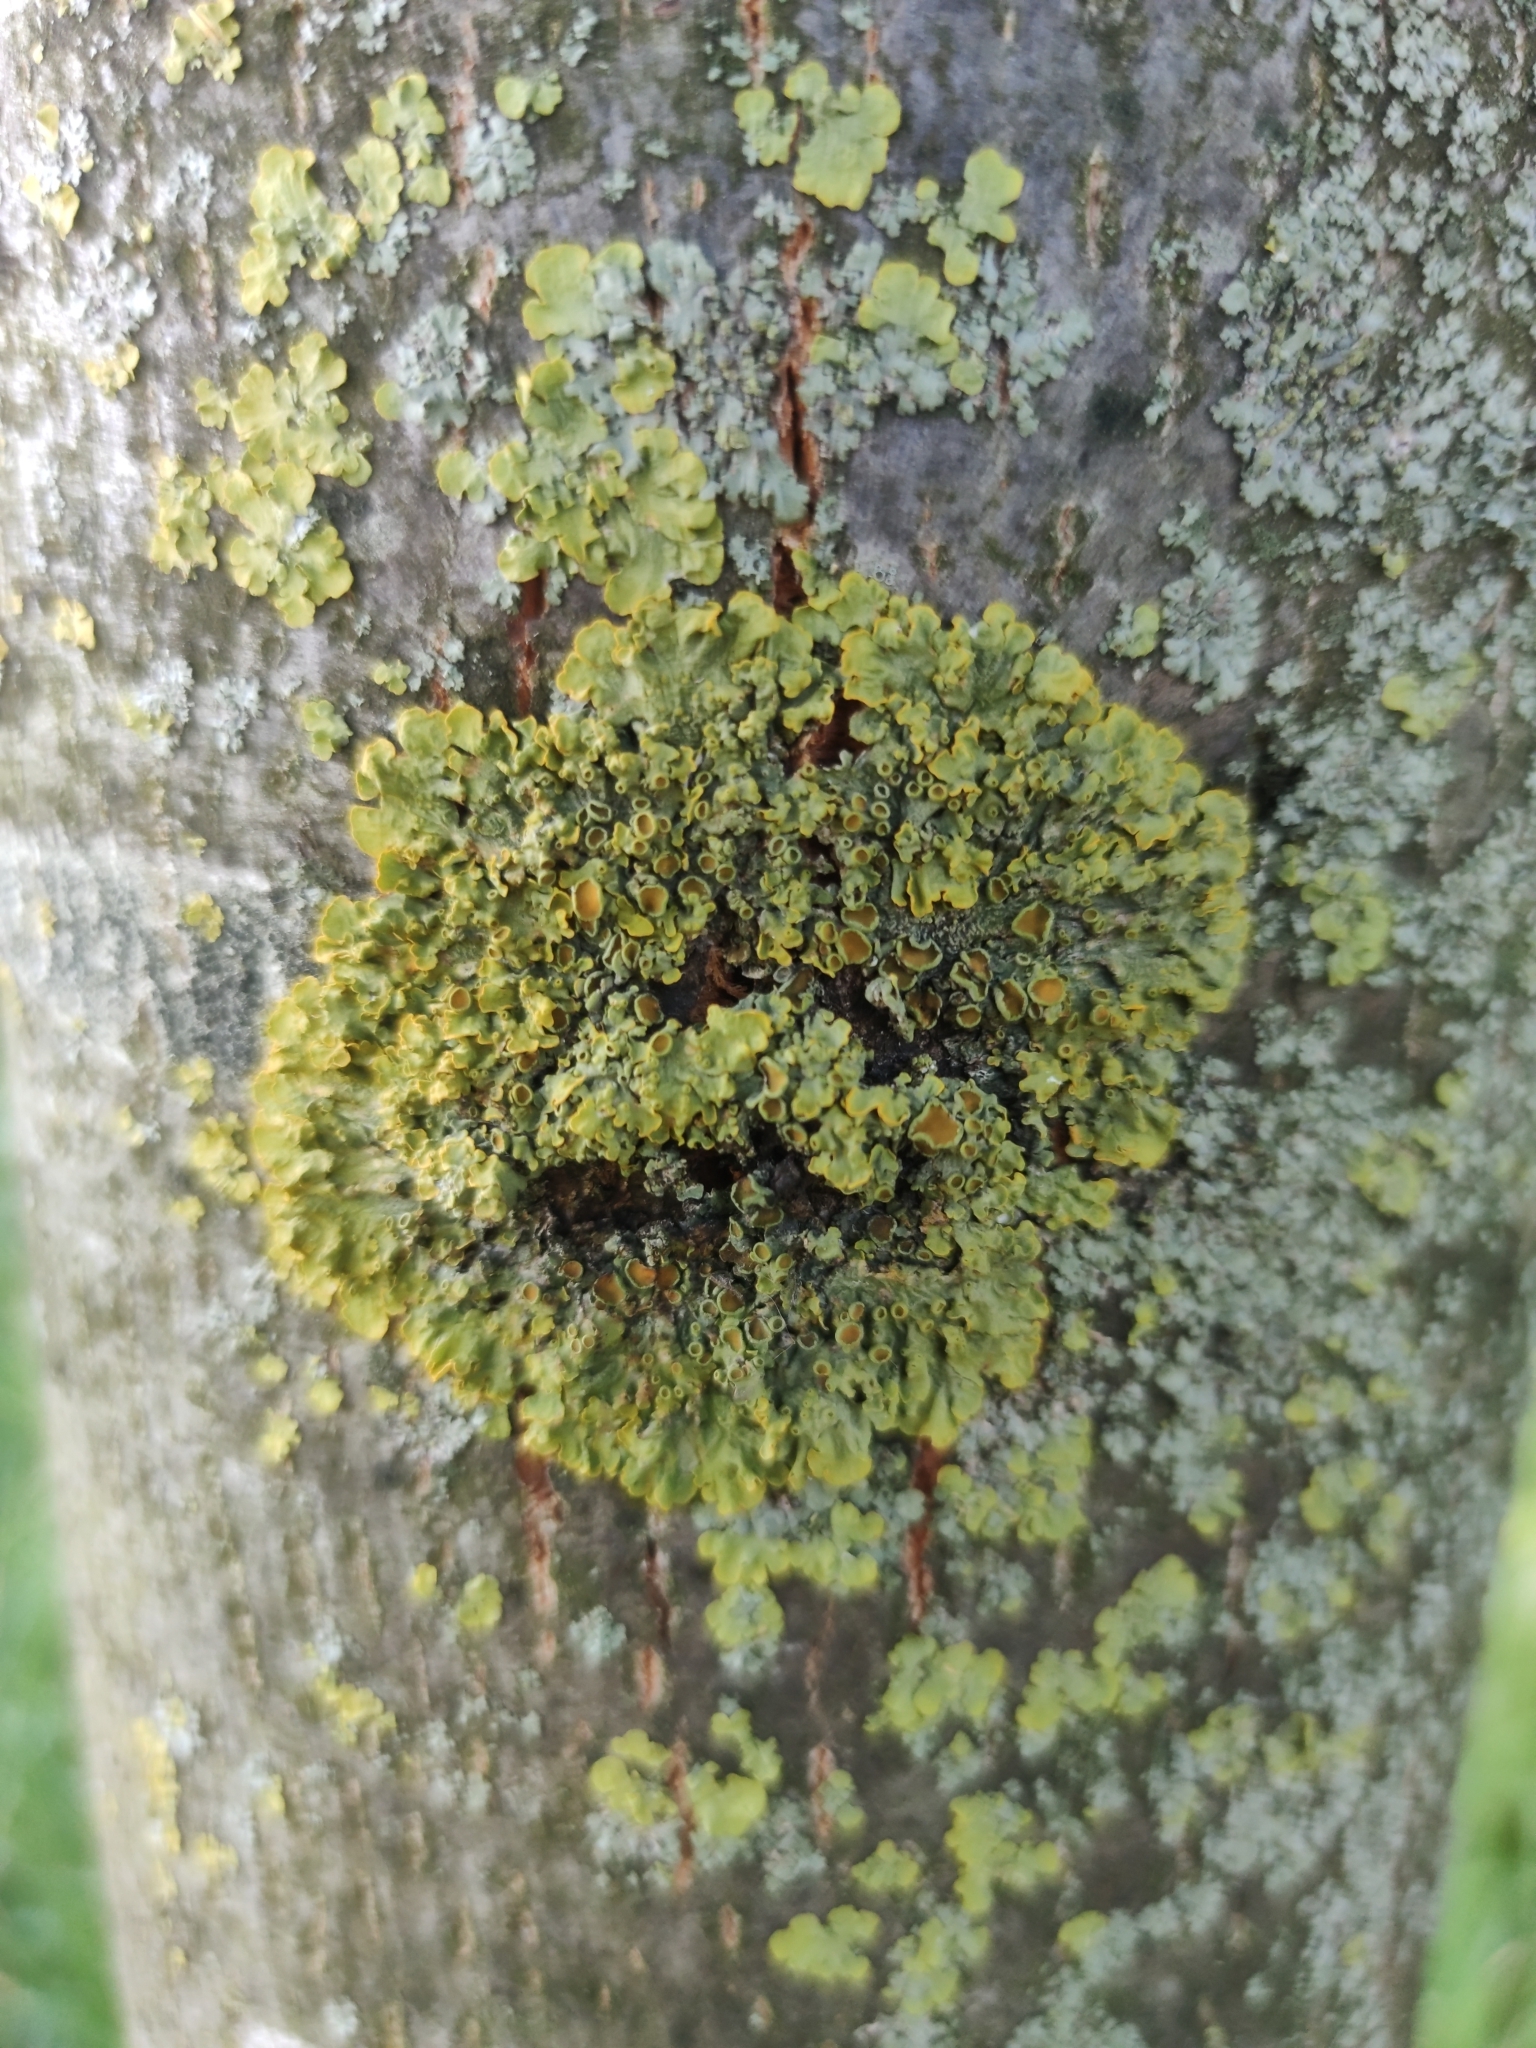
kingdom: Fungi
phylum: Ascomycota
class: Lecanoromycetes
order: Teloschistales
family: Teloschistaceae
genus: Xanthoria
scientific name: Xanthoria parietina
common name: Common orange lichen
